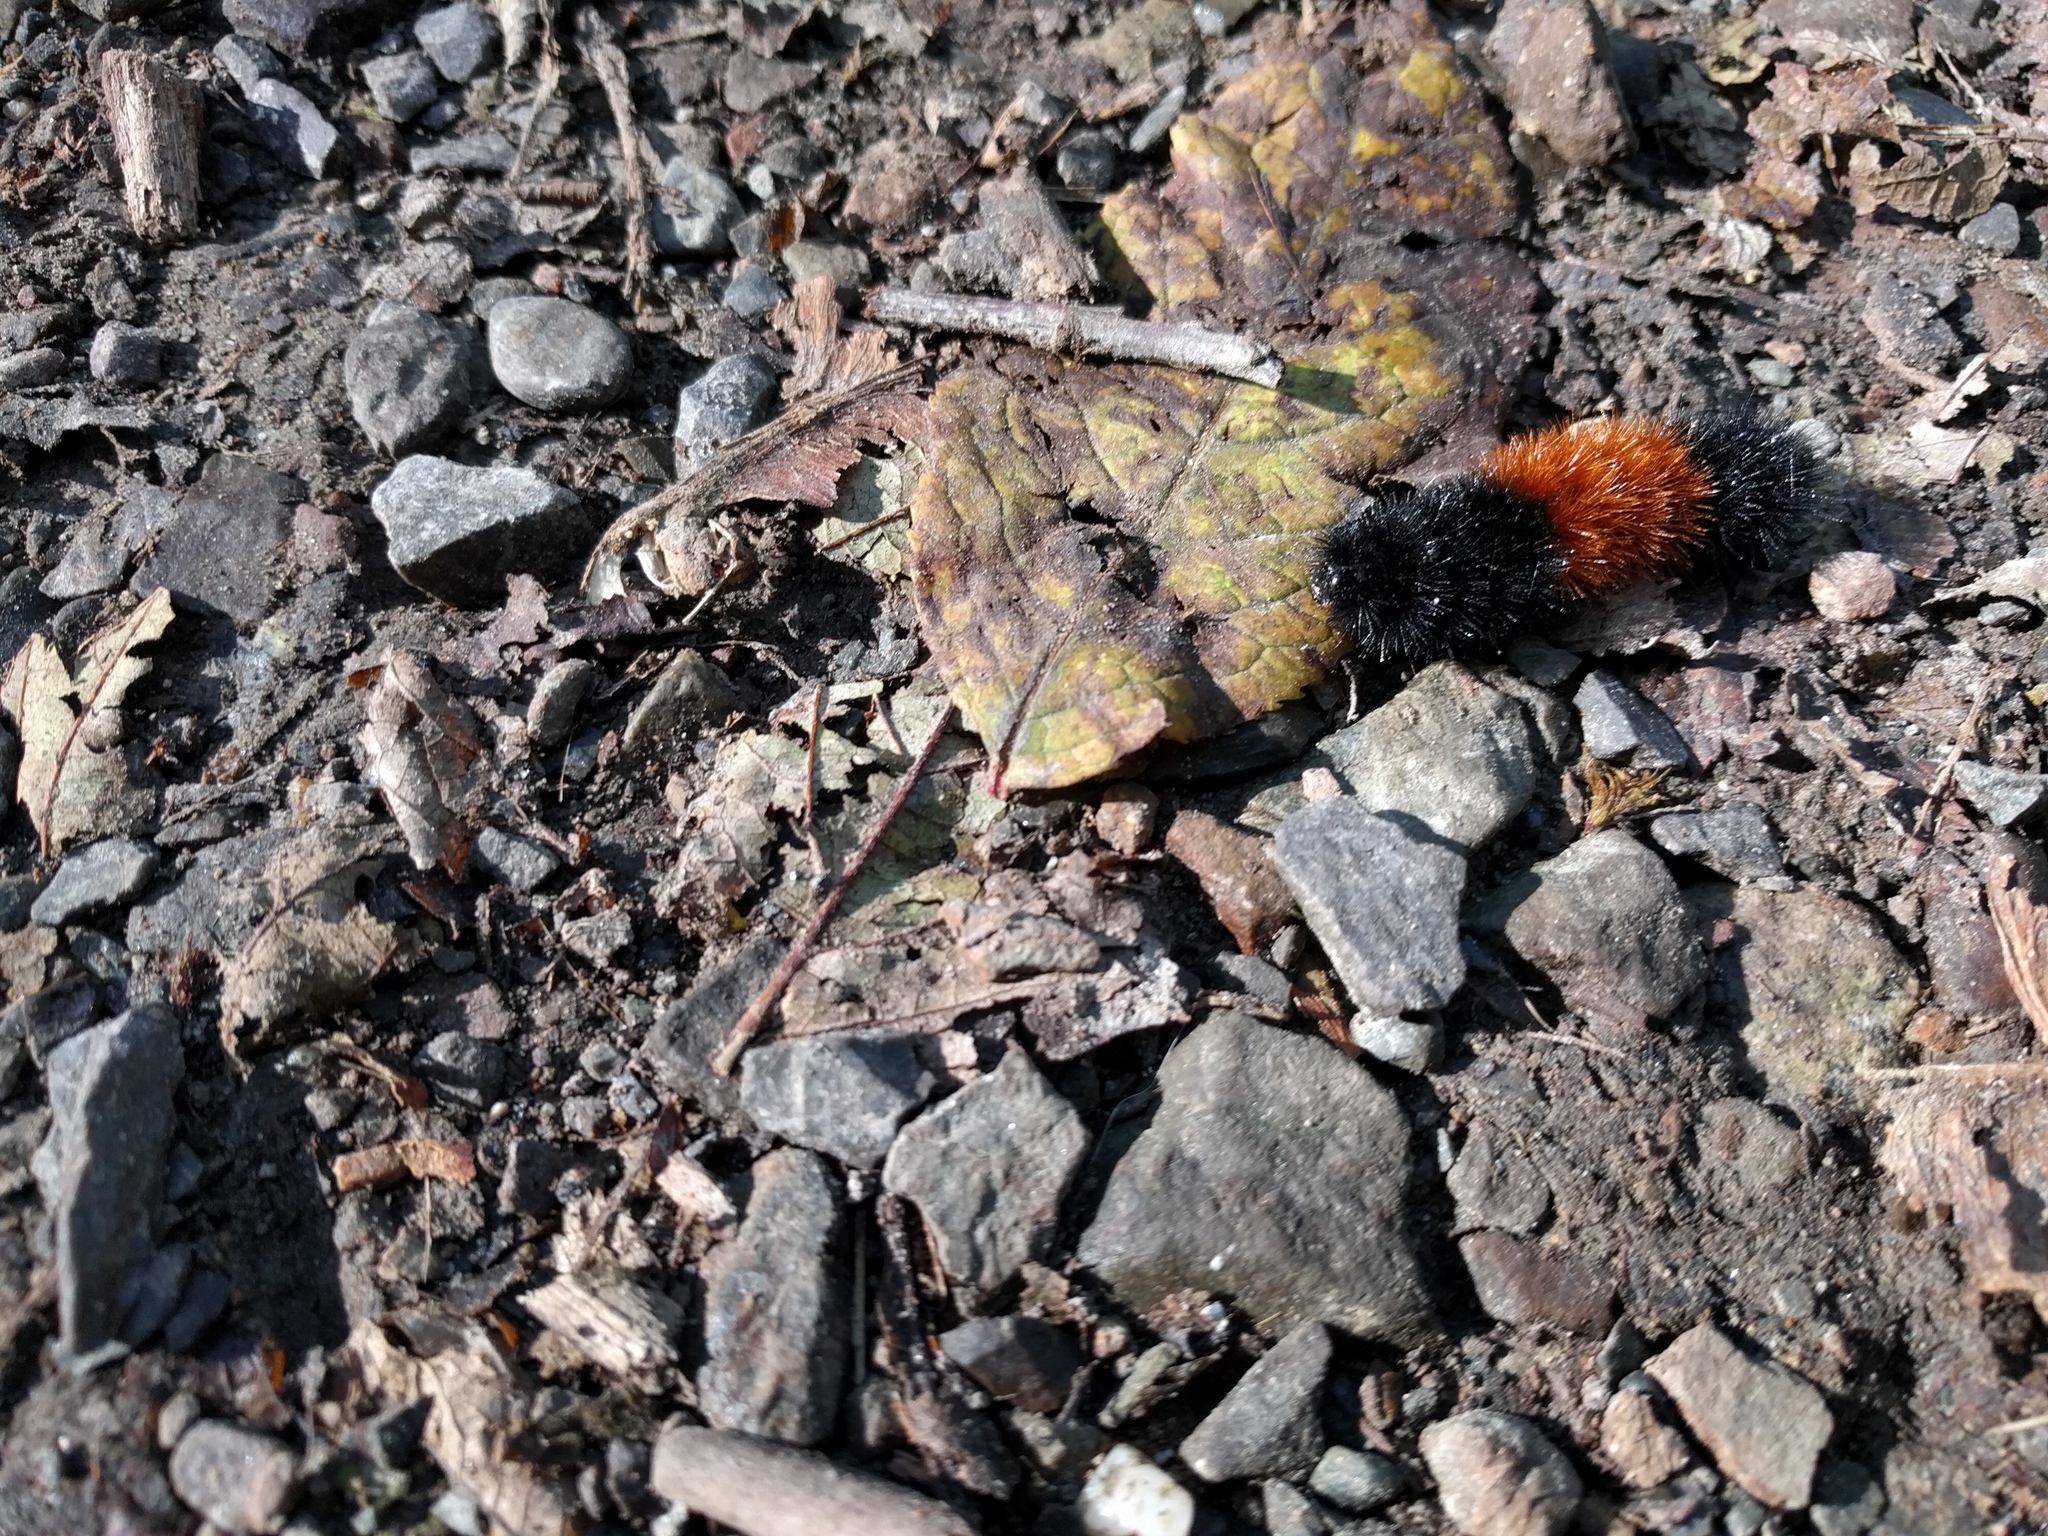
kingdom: Animalia
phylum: Arthropoda
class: Insecta
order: Lepidoptera
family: Erebidae
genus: Pyrrharctia
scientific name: Pyrrharctia isabella
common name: Isabella tiger moth
